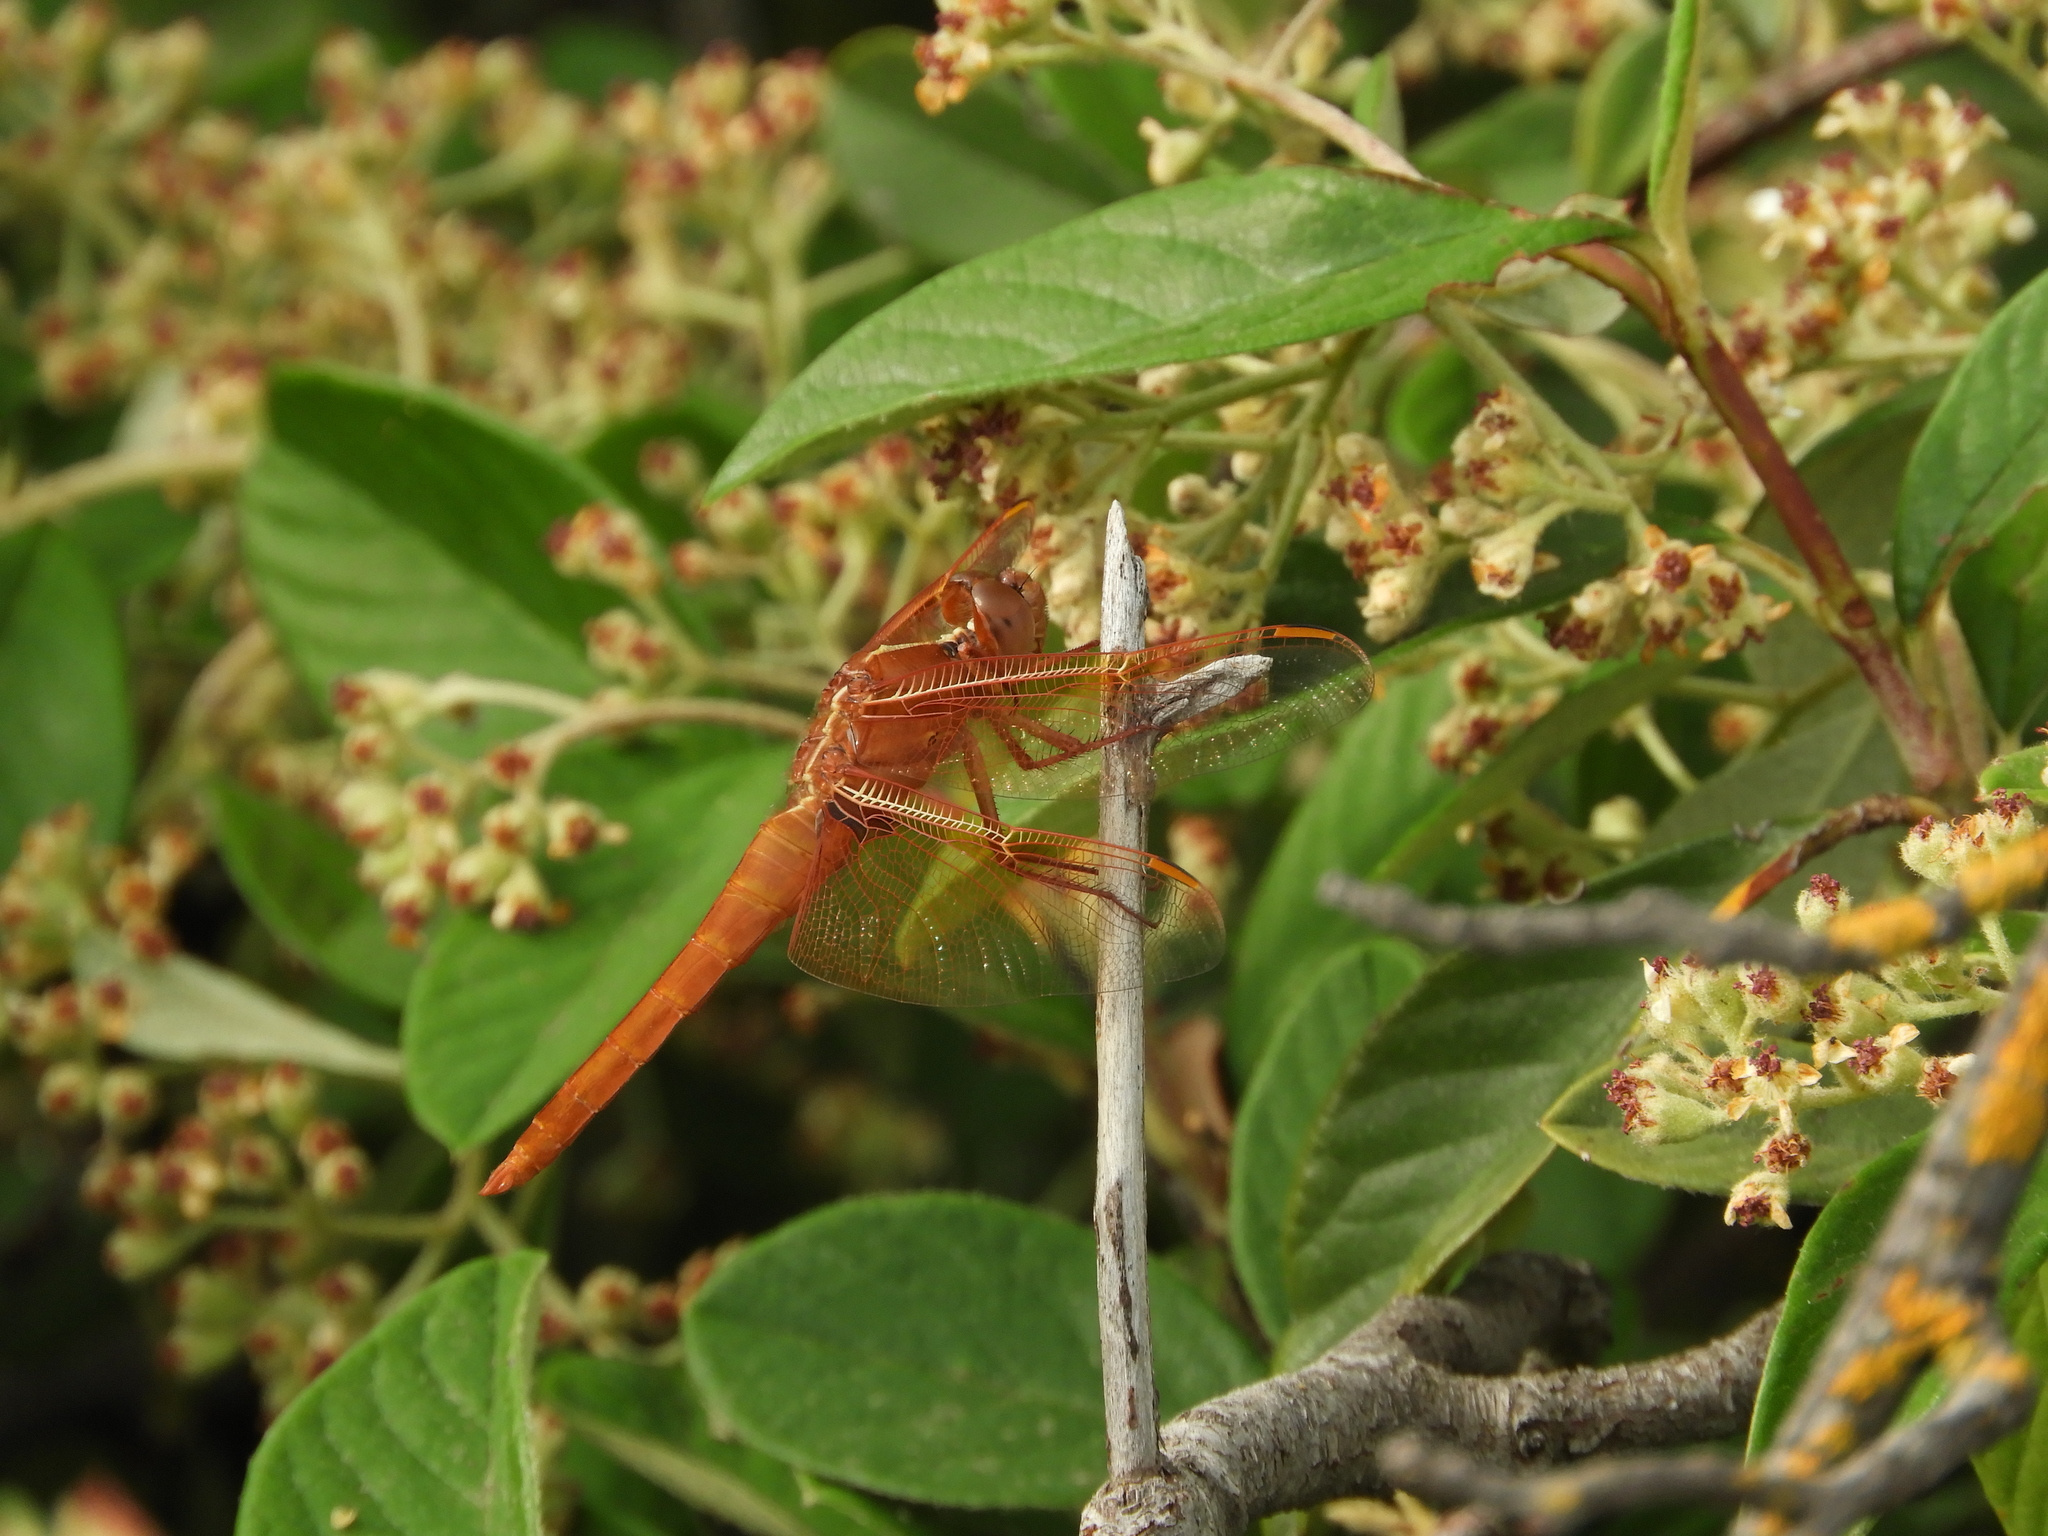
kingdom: Animalia
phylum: Arthropoda
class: Insecta
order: Odonata
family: Libellulidae
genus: Libellula
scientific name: Libellula saturata
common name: Flame skimmer
